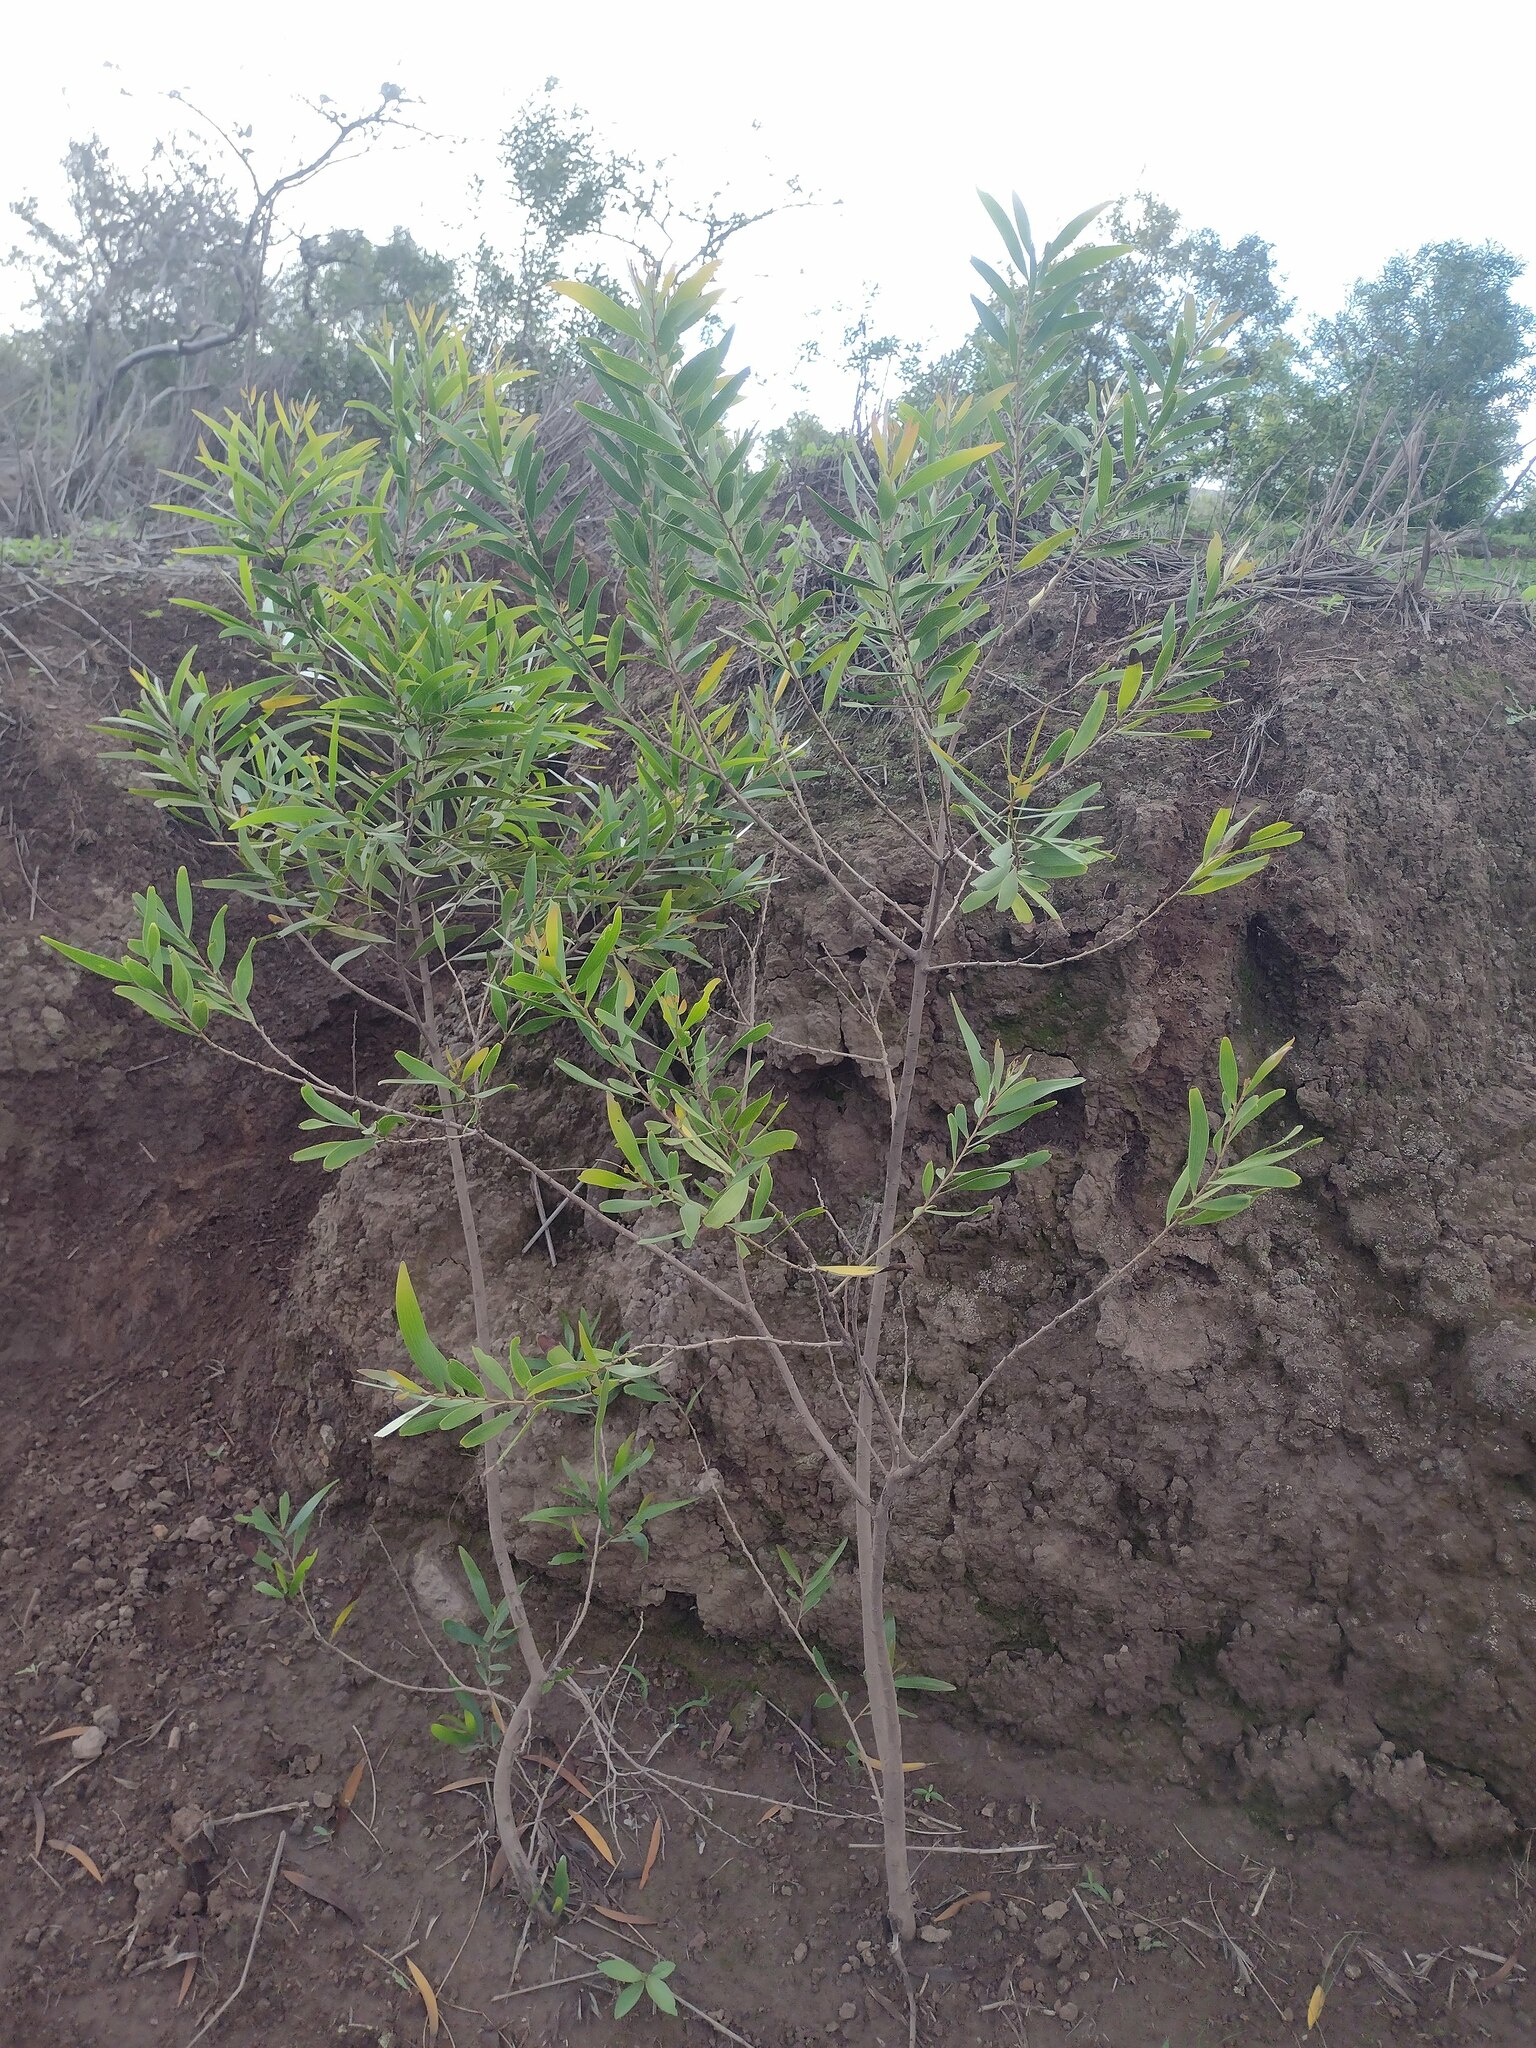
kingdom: Plantae
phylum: Tracheophyta
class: Magnoliopsida
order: Fabales
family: Fabaceae
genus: Acacia
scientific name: Acacia confusa
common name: Formosan koa
